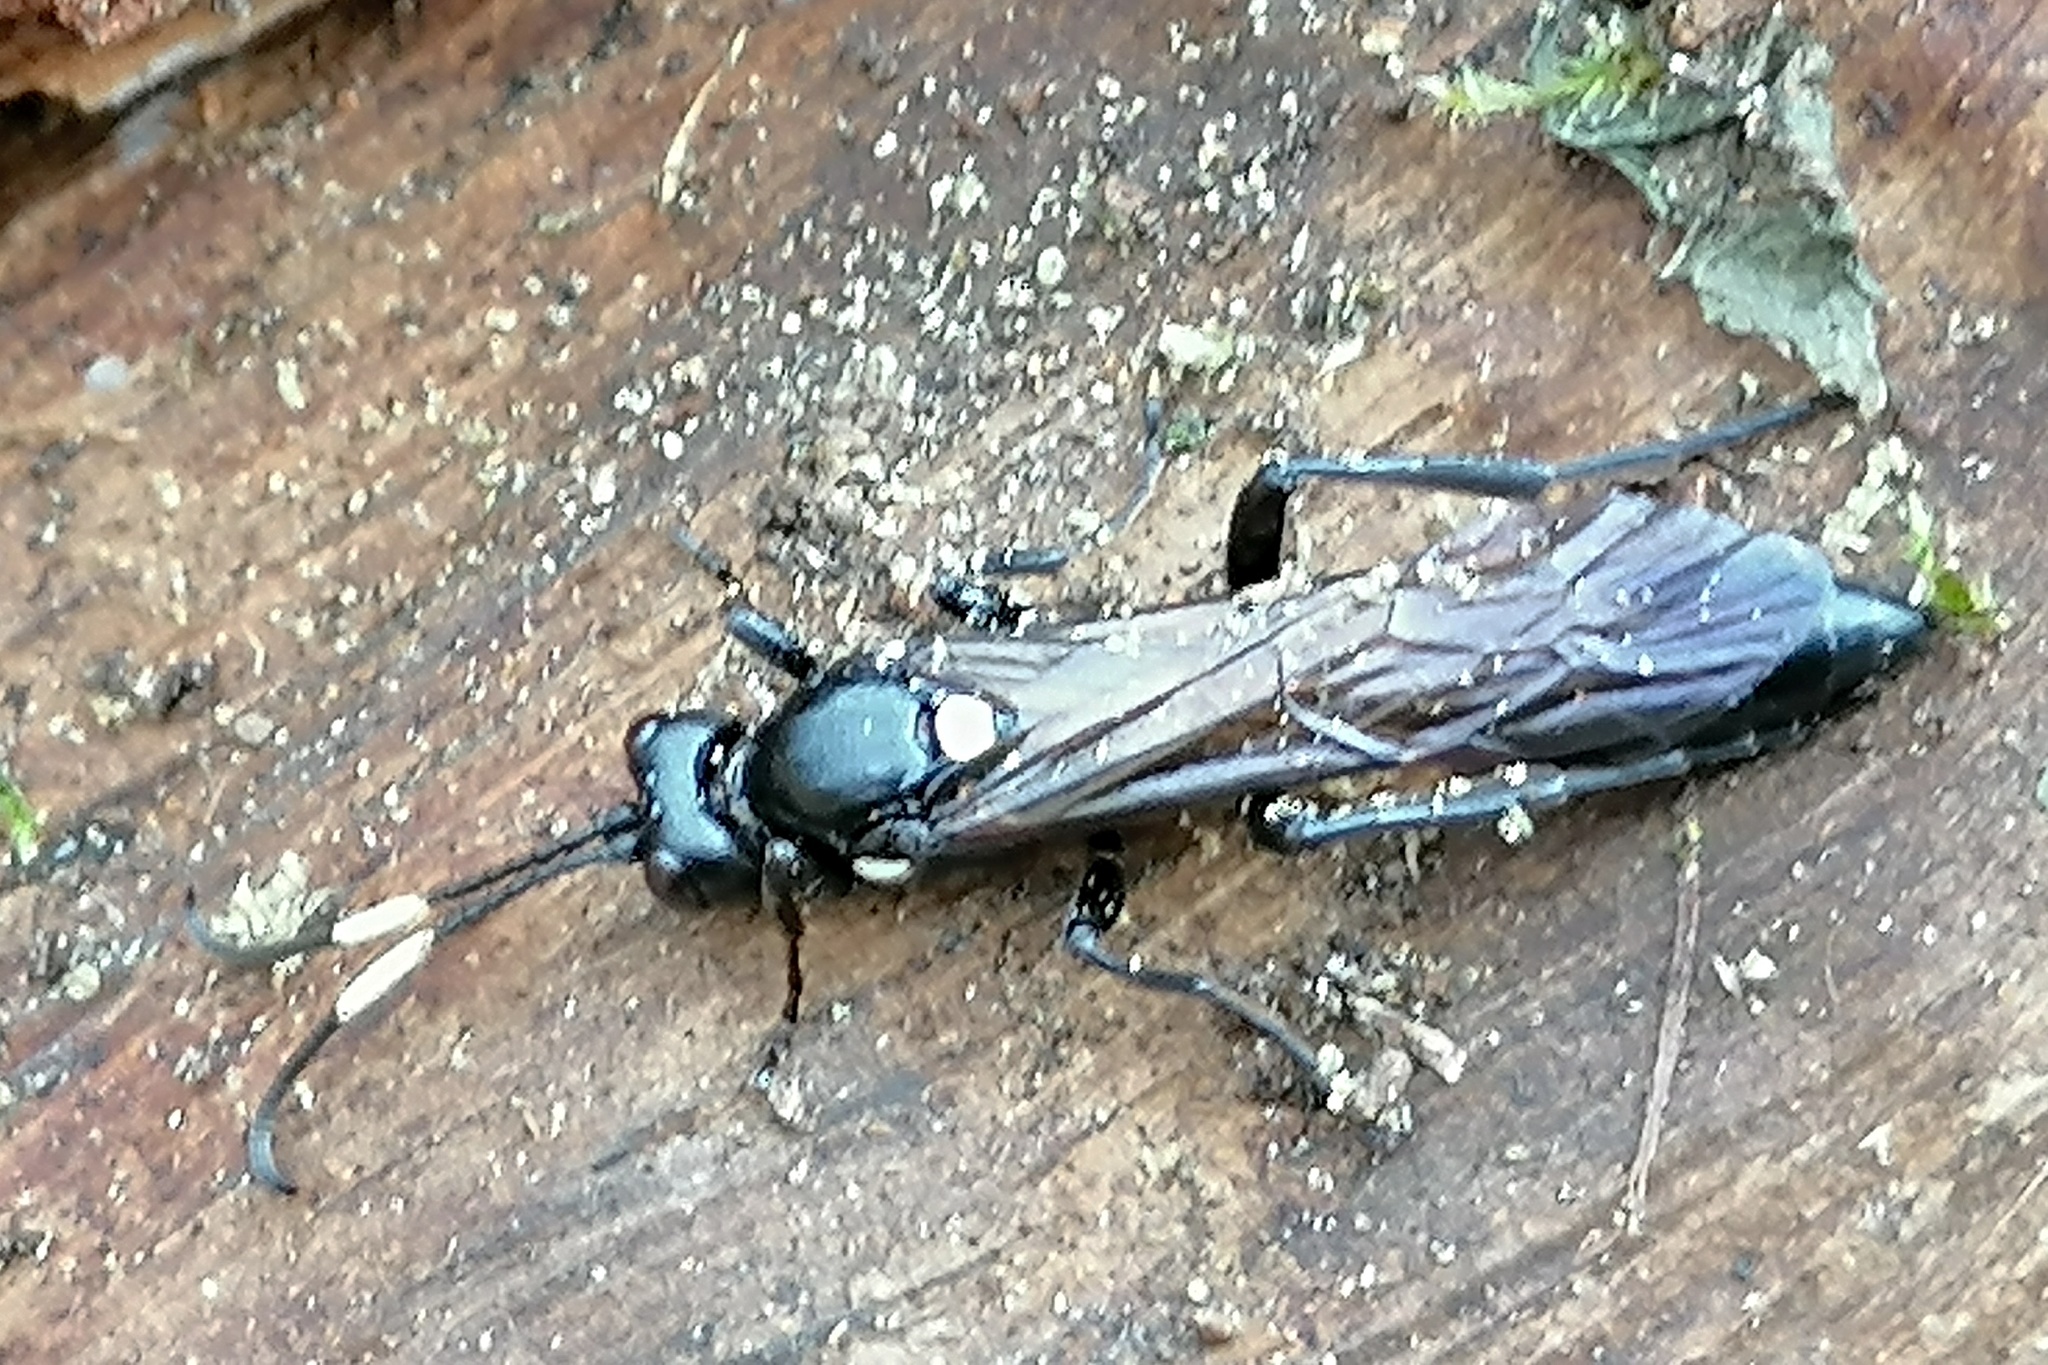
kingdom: Animalia
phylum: Arthropoda
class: Insecta
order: Hymenoptera
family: Ichneumonidae
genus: Ichneumon
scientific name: Ichneumon lugens
